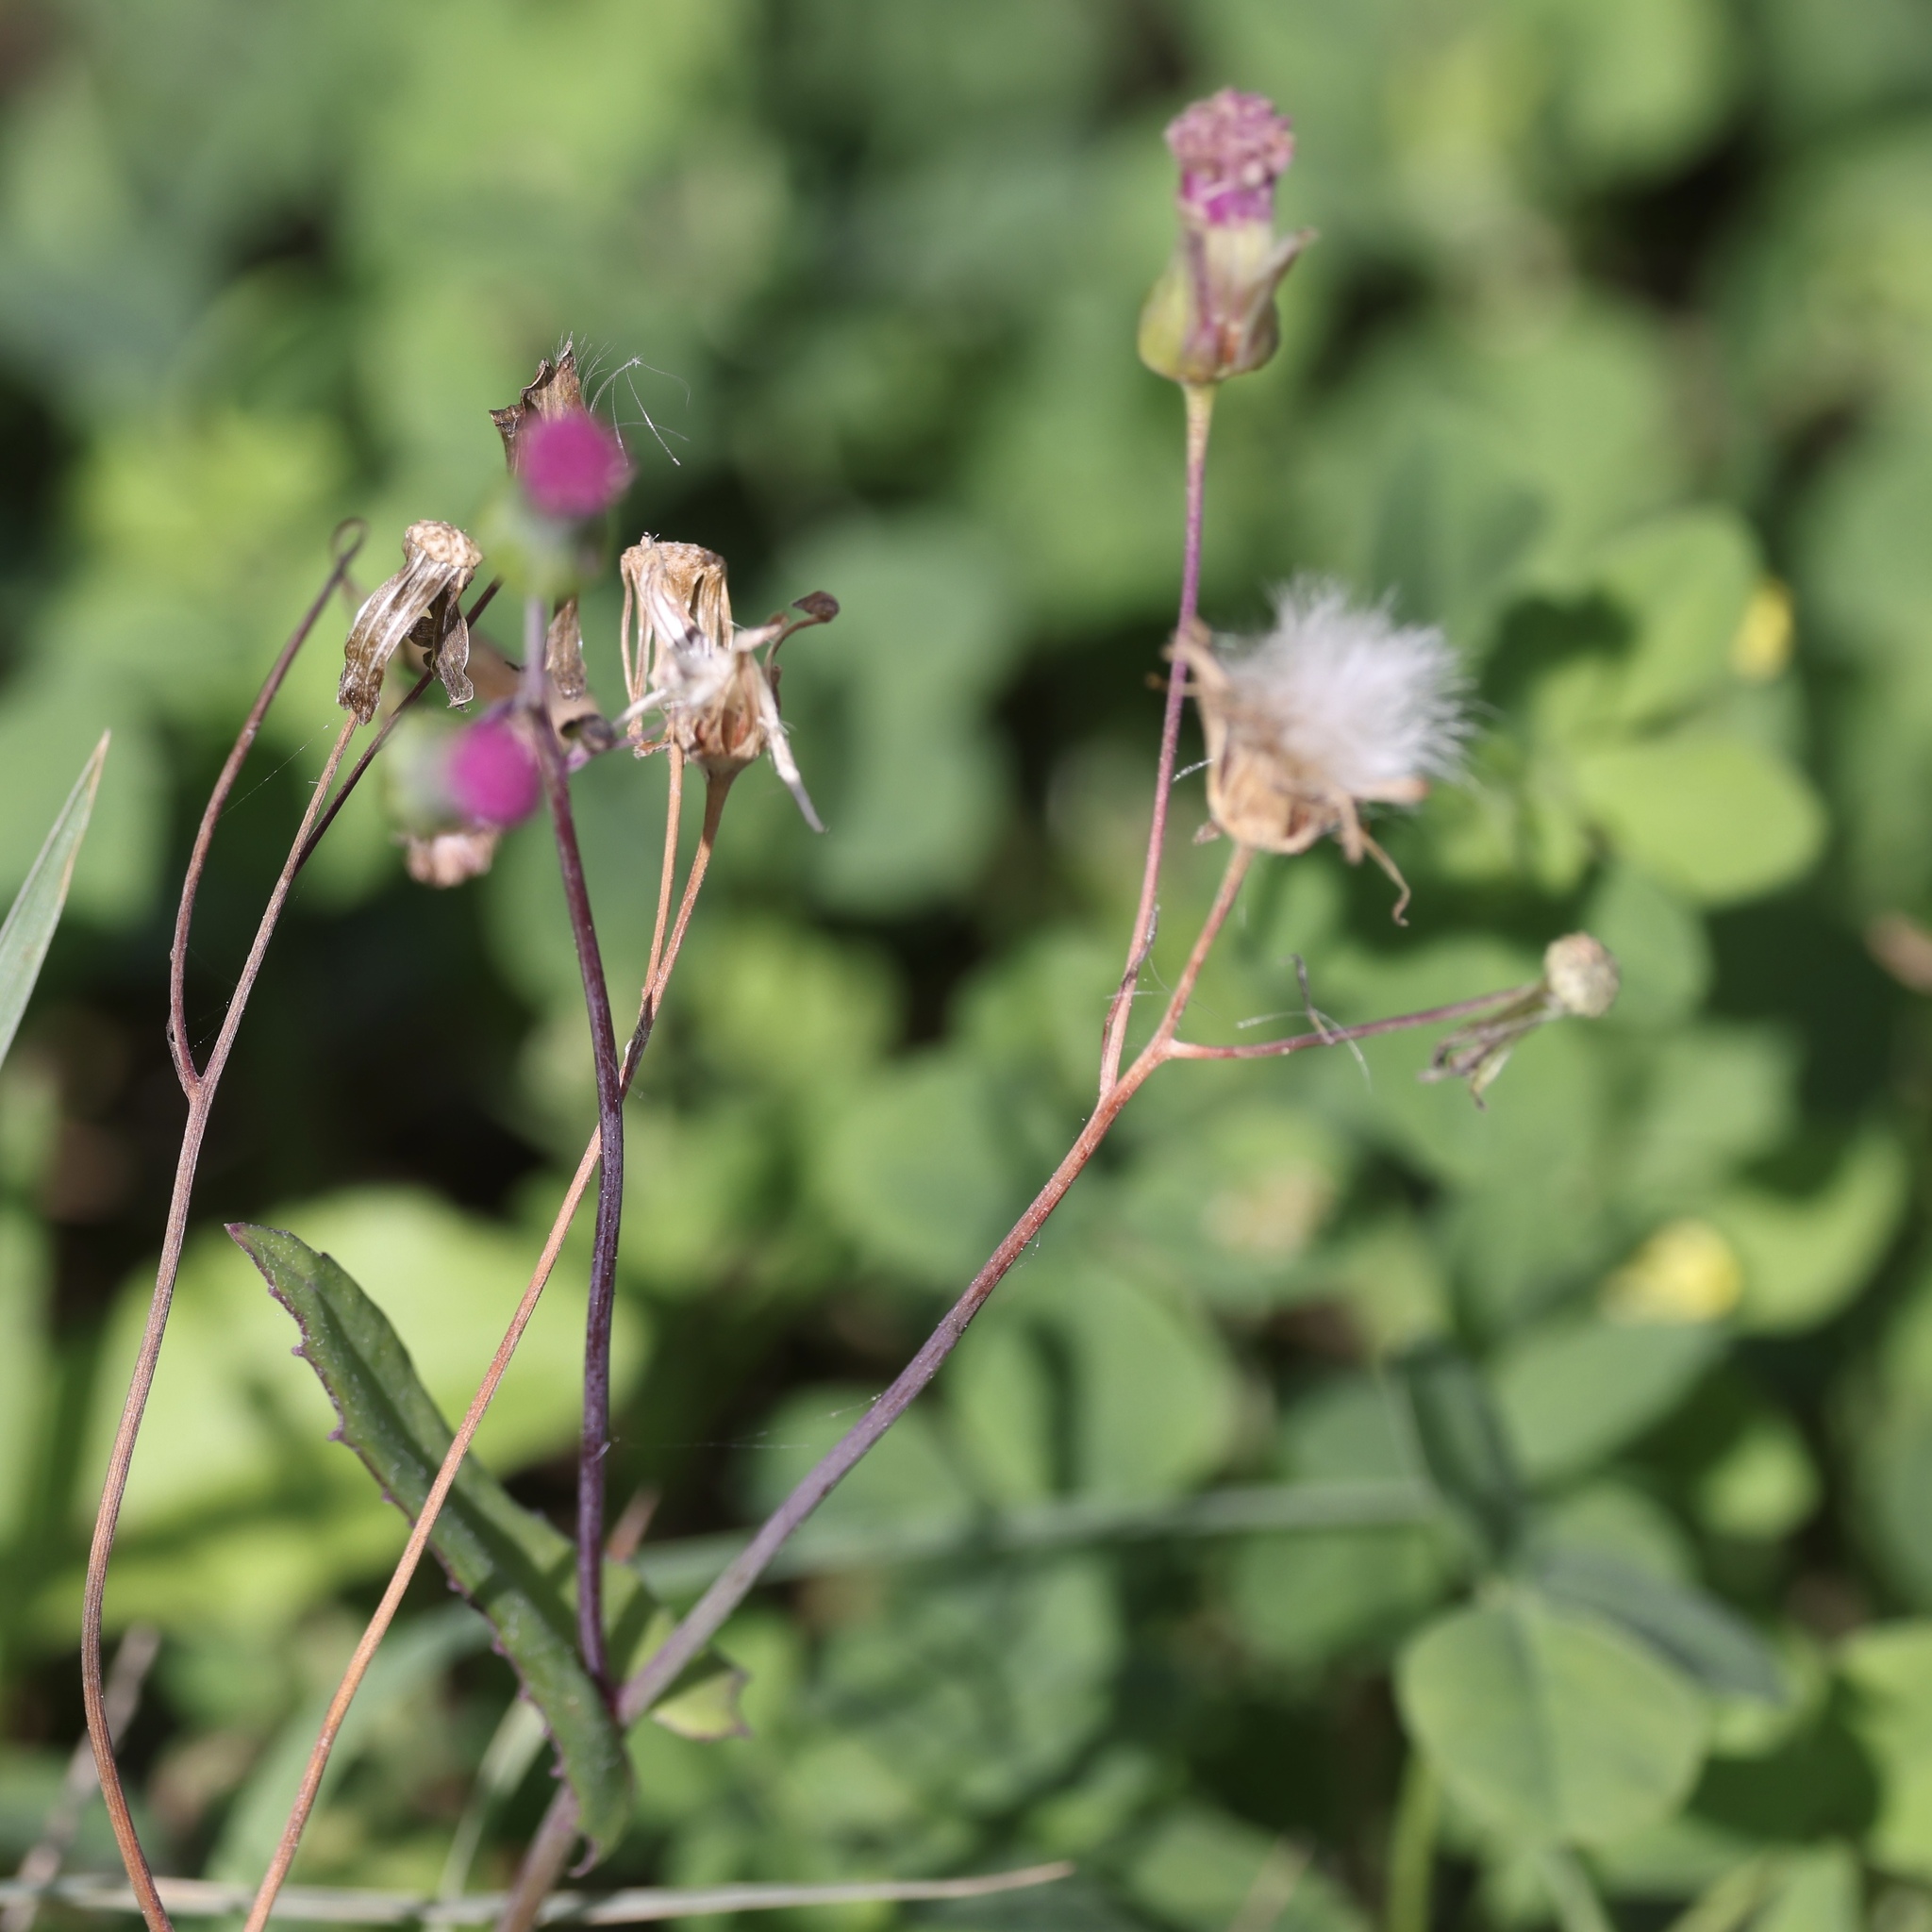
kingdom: Plantae
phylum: Tracheophyta
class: Magnoliopsida
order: Asterales
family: Asteraceae
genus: Emilia
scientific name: Emilia sonchifolia
